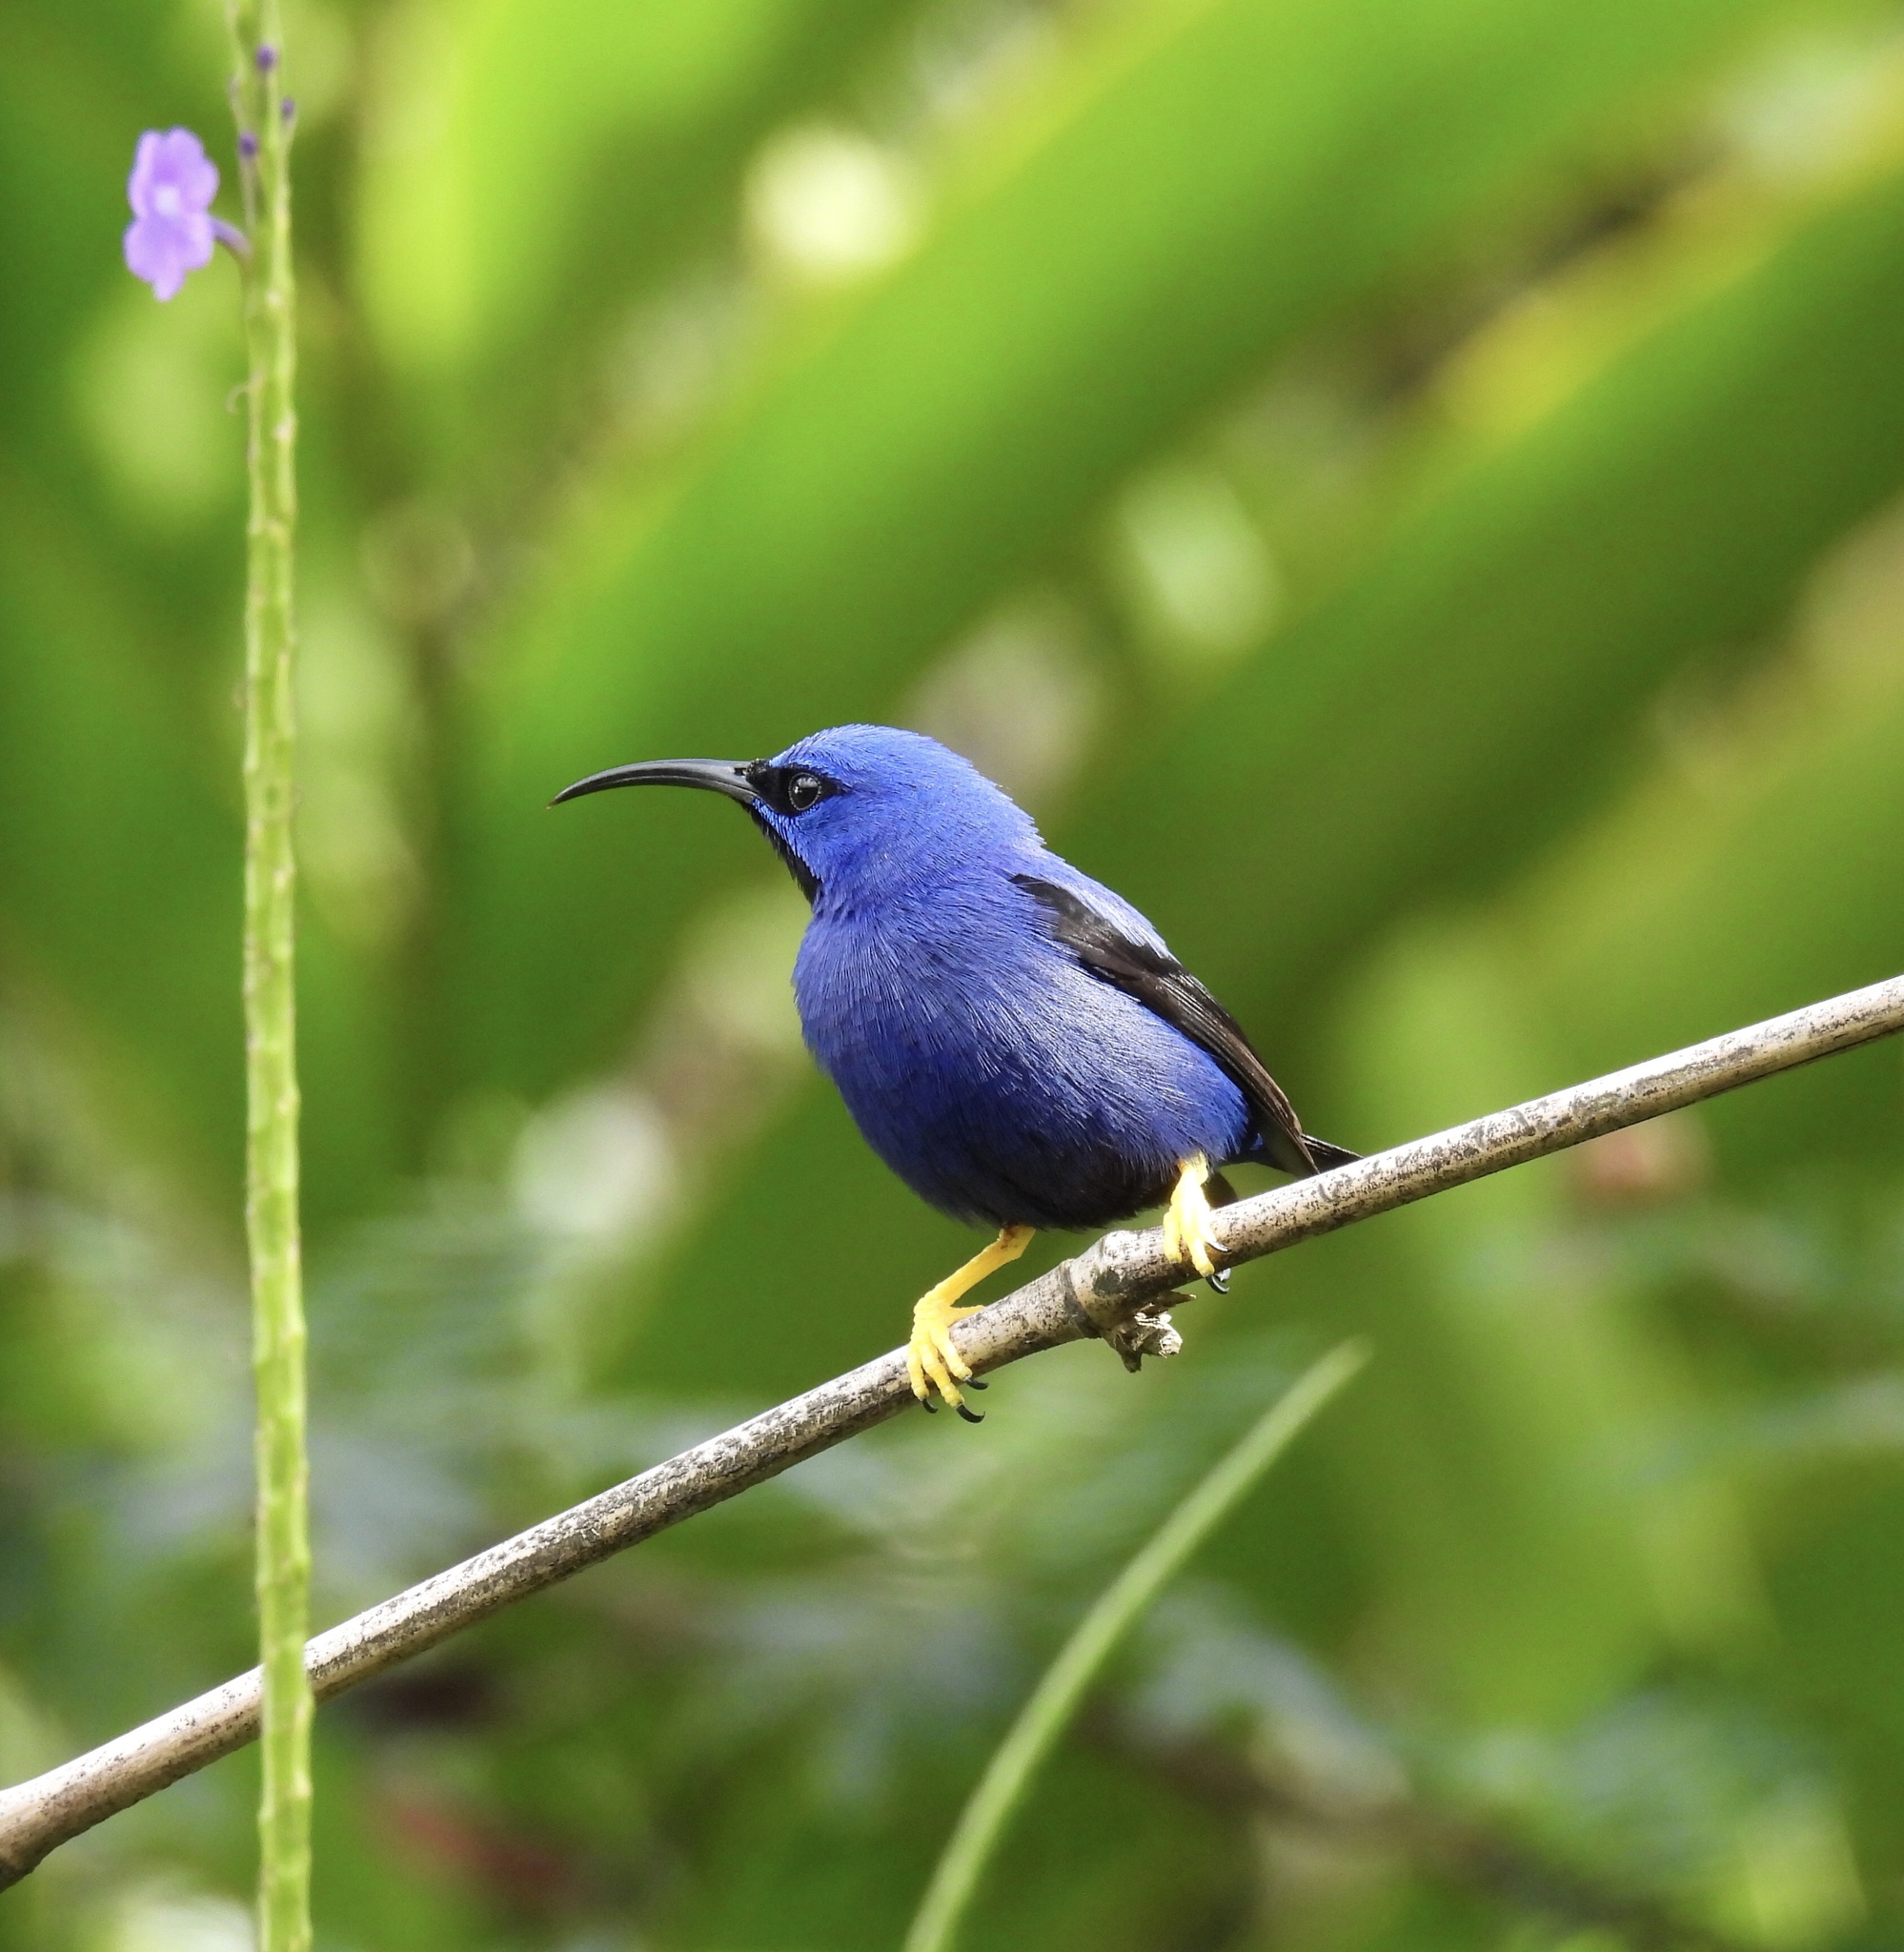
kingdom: Animalia
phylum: Chordata
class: Aves
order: Passeriformes
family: Thraupidae
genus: Cyanerpes
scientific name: Cyanerpes caeruleus
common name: Purple honeycreeper
